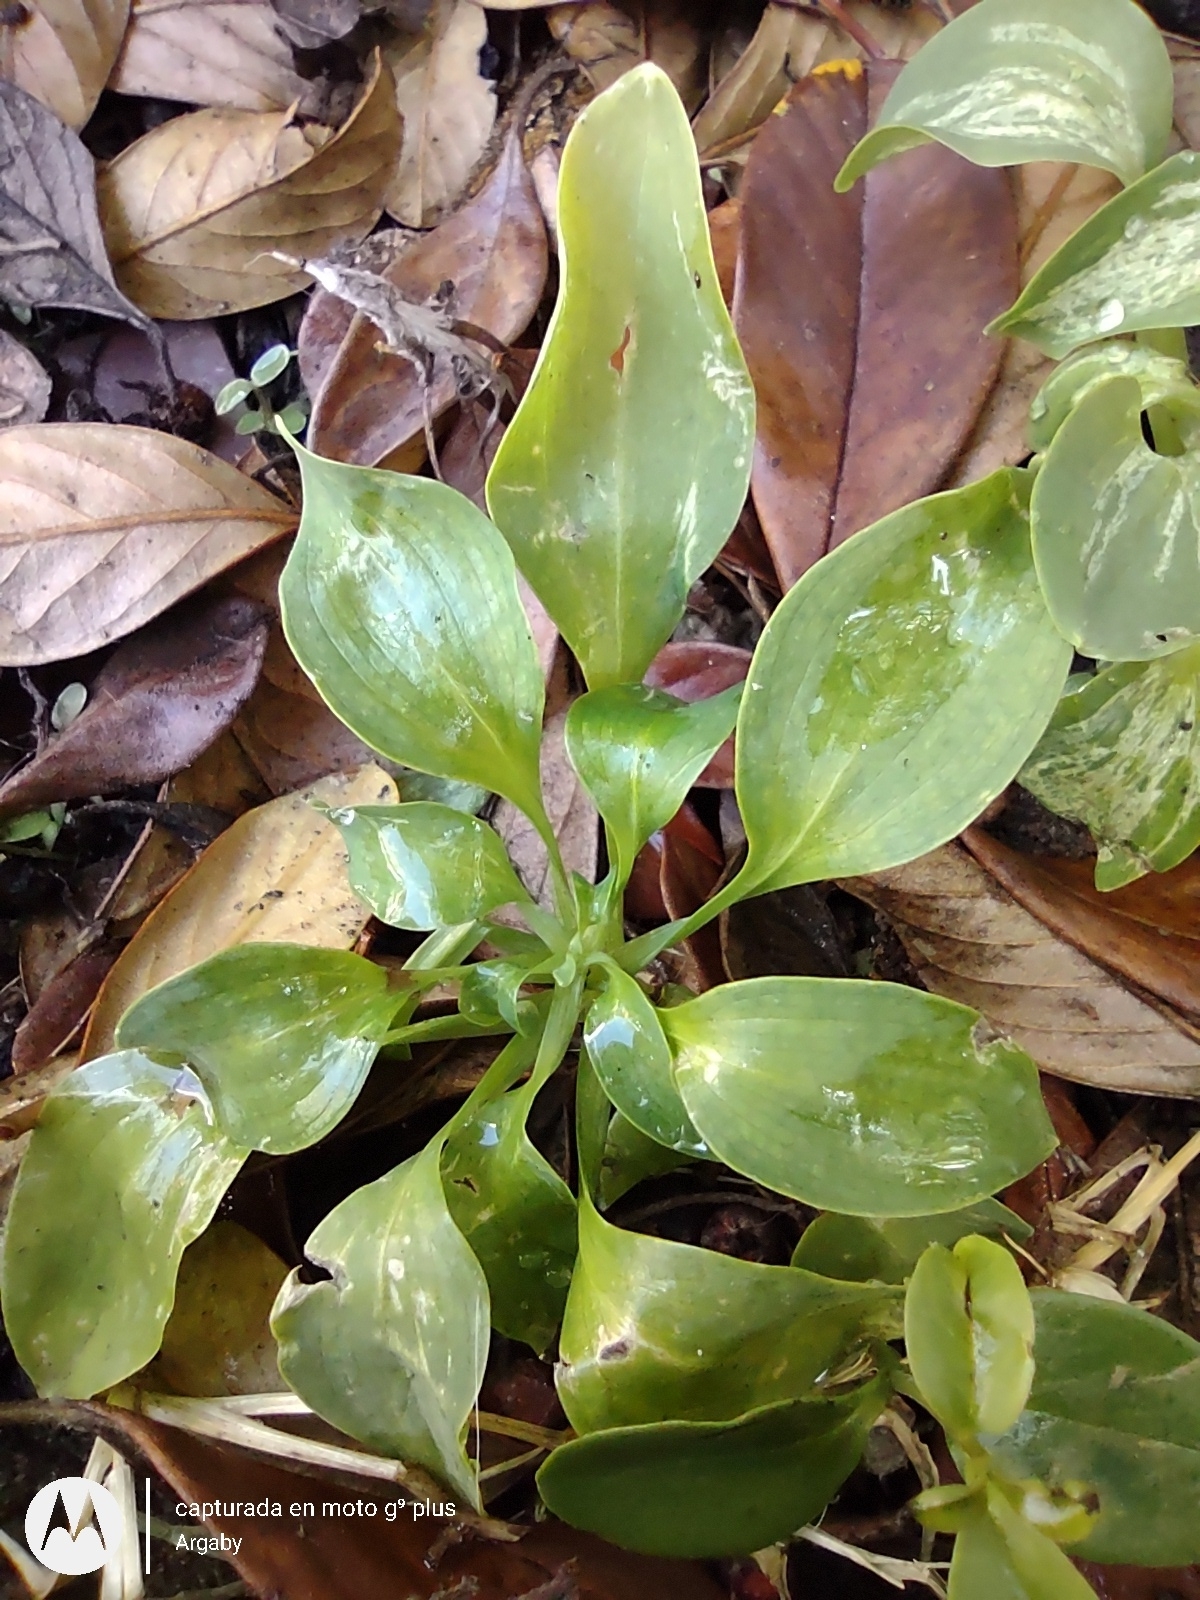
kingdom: Plantae
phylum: Tracheophyta
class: Liliopsida
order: Liliales
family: Alstroemeriaceae
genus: Alstroemeria
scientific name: Alstroemeria psittacina
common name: Peruvian-lily
